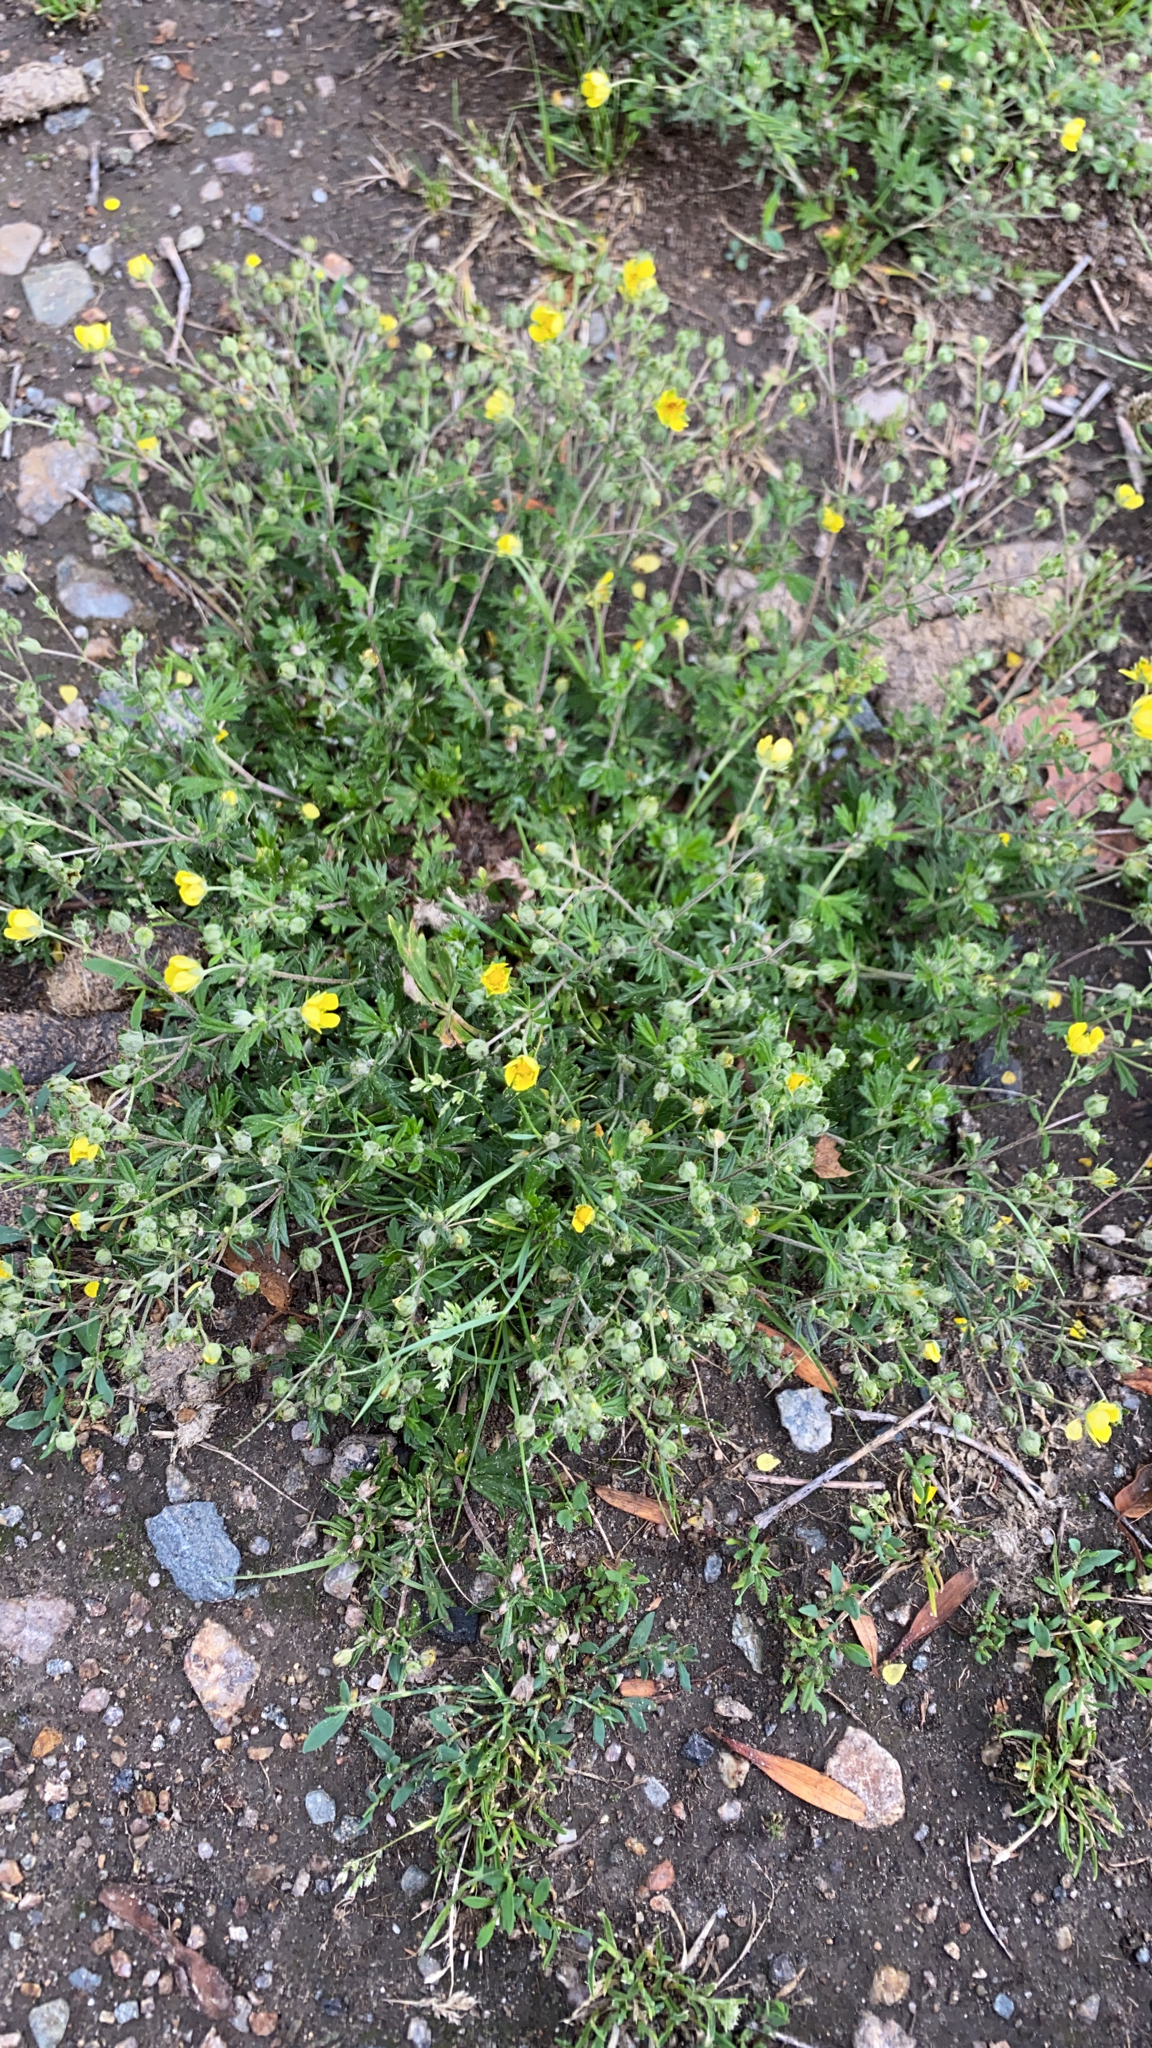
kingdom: Plantae
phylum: Tracheophyta
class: Magnoliopsida
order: Rosales
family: Rosaceae
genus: Potentilla
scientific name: Potentilla argentea
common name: Hoary cinquefoil
